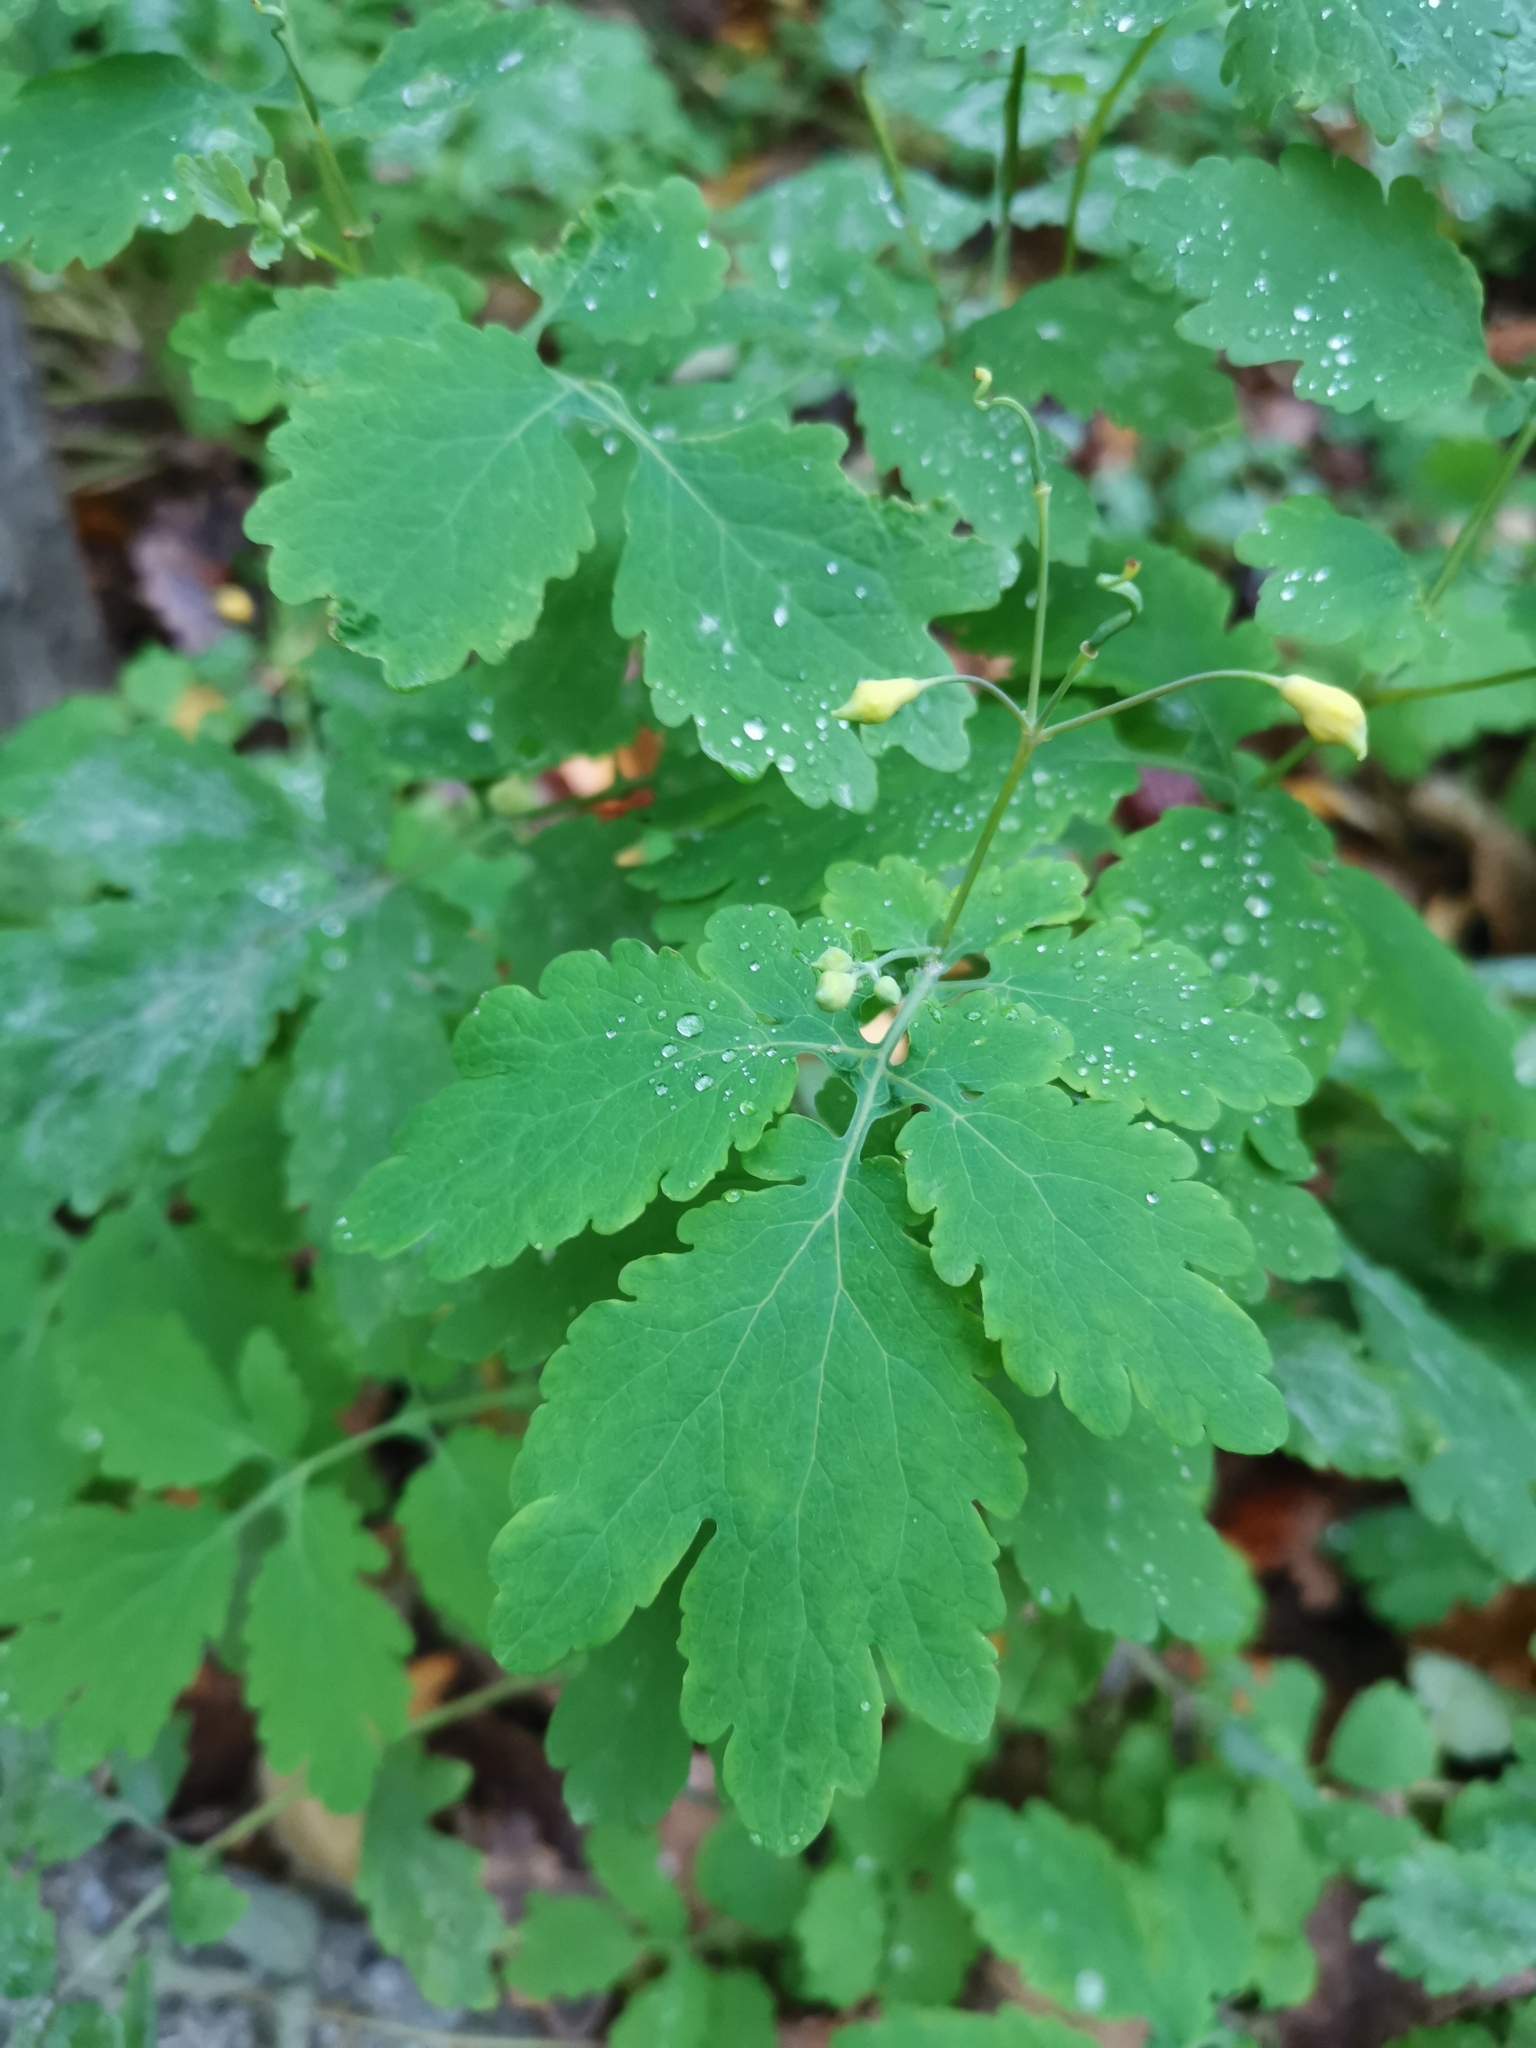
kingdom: Plantae
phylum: Tracheophyta
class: Magnoliopsida
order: Ranunculales
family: Papaveraceae
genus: Chelidonium
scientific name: Chelidonium majus
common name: Greater celandine
